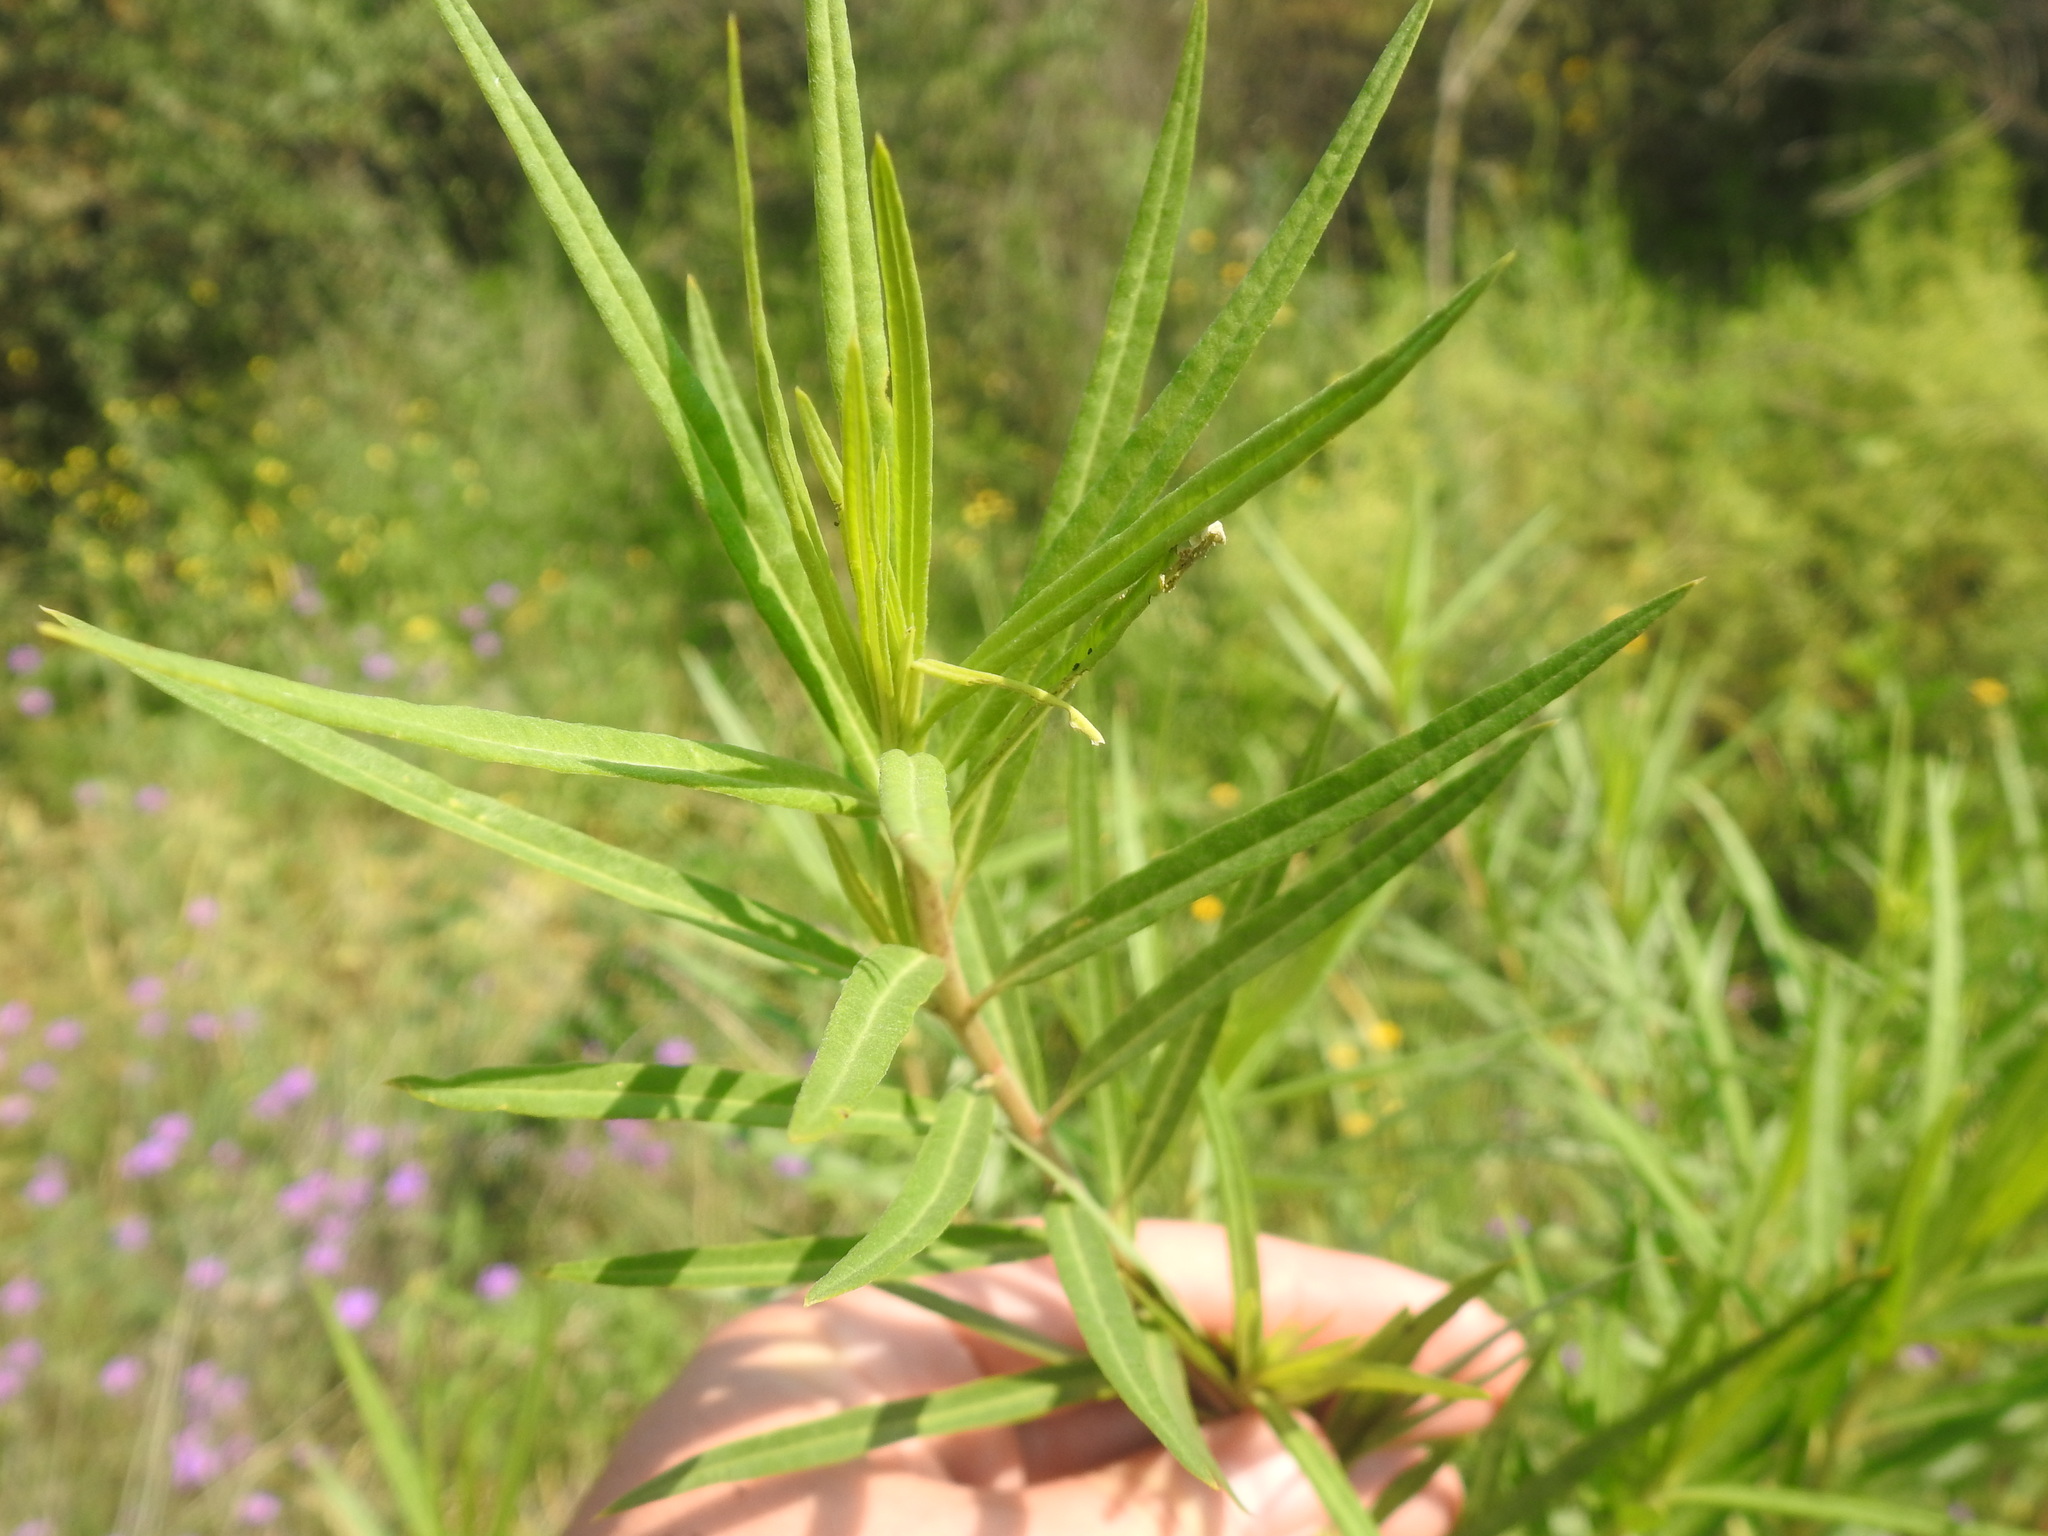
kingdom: Plantae
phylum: Tracheophyta
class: Magnoliopsida
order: Gentianales
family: Apocynaceae
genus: Gomphocarpus
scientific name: Gomphocarpus fruticosus
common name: Milkweed
